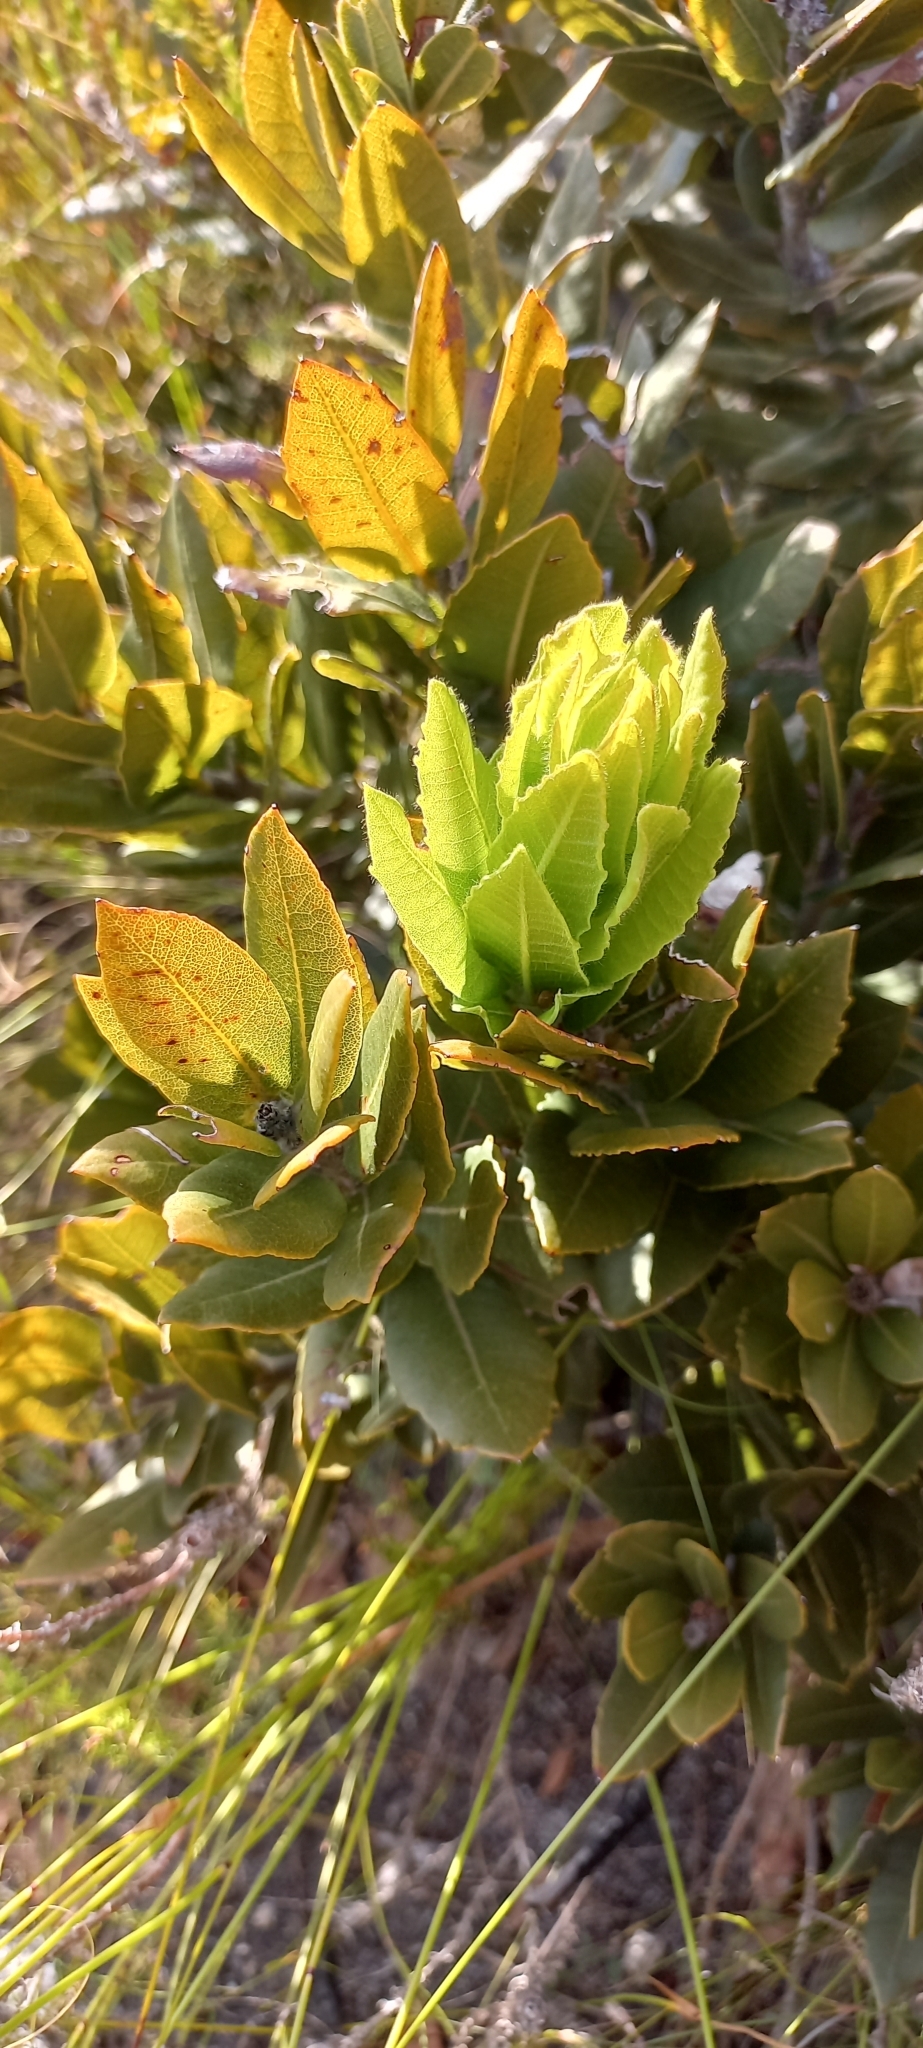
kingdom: Plantae
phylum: Tracheophyta
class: Magnoliopsida
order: Sapindales
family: Anacardiaceae
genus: Laurophyllus
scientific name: Laurophyllus capensis
